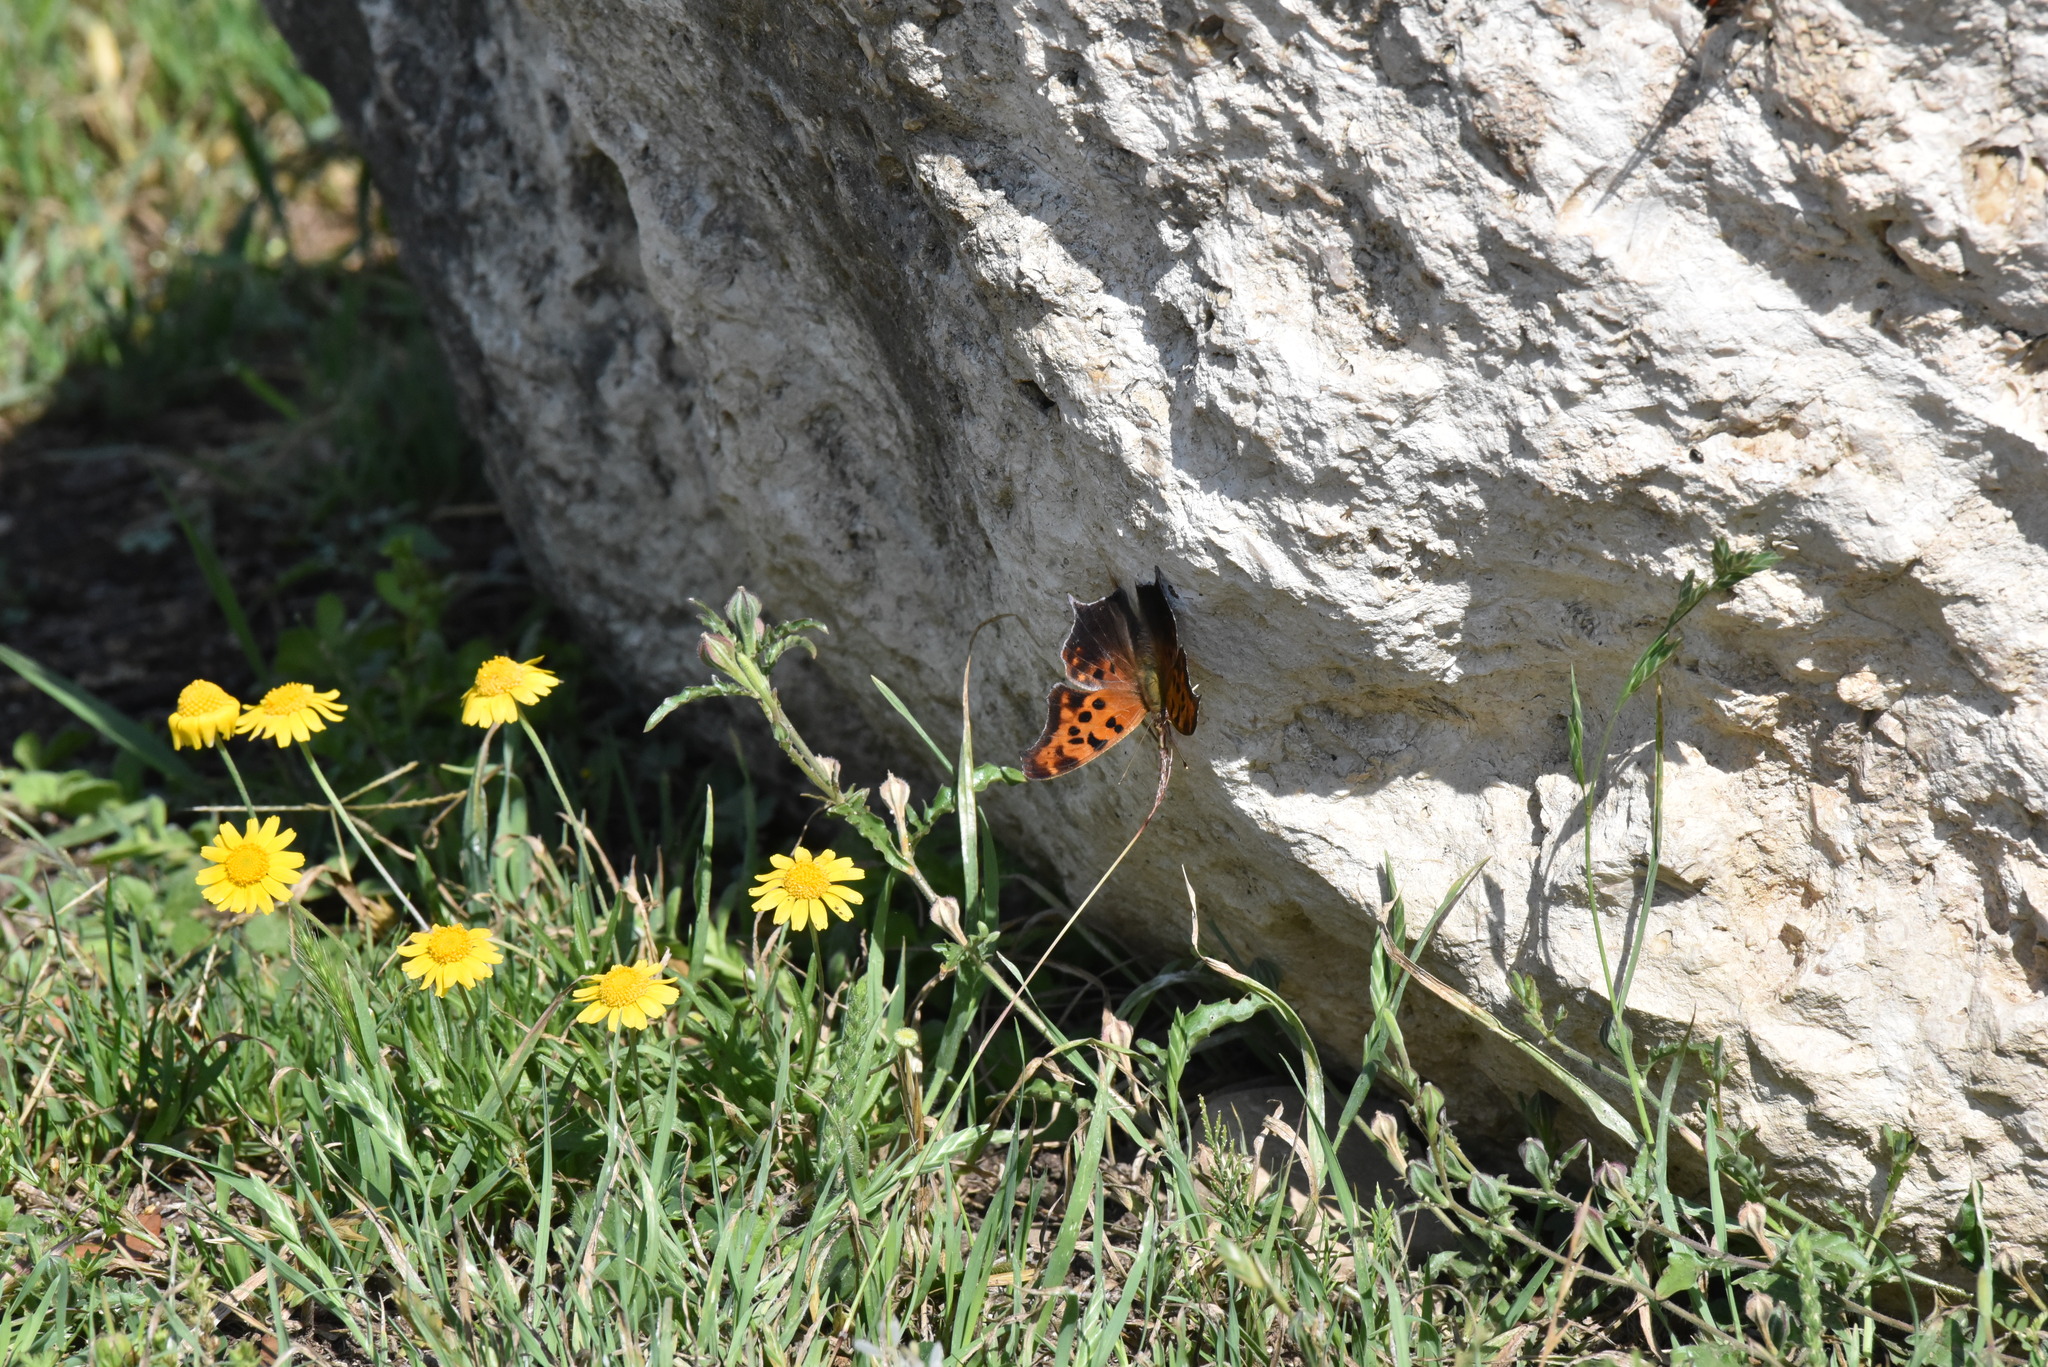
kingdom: Animalia
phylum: Arthropoda
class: Insecta
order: Lepidoptera
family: Nymphalidae
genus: Polygonia
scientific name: Polygonia interrogationis
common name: Question mark
